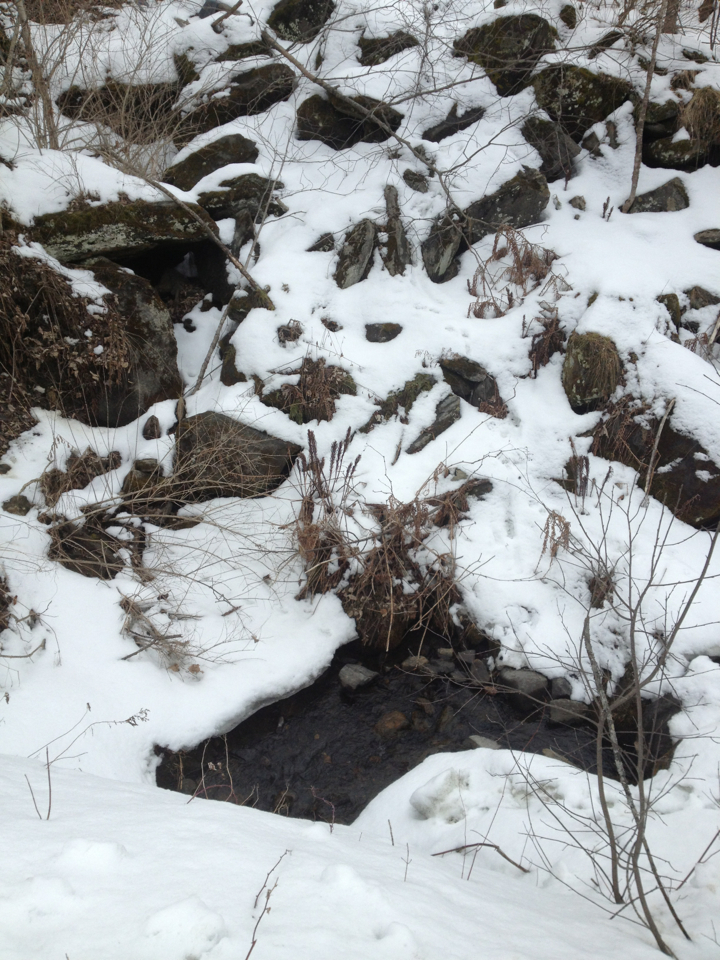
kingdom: Plantae
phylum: Tracheophyta
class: Polypodiopsida
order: Polypodiales
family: Onocleaceae
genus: Matteuccia
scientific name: Matteuccia struthiopteris
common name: Ostrich fern
